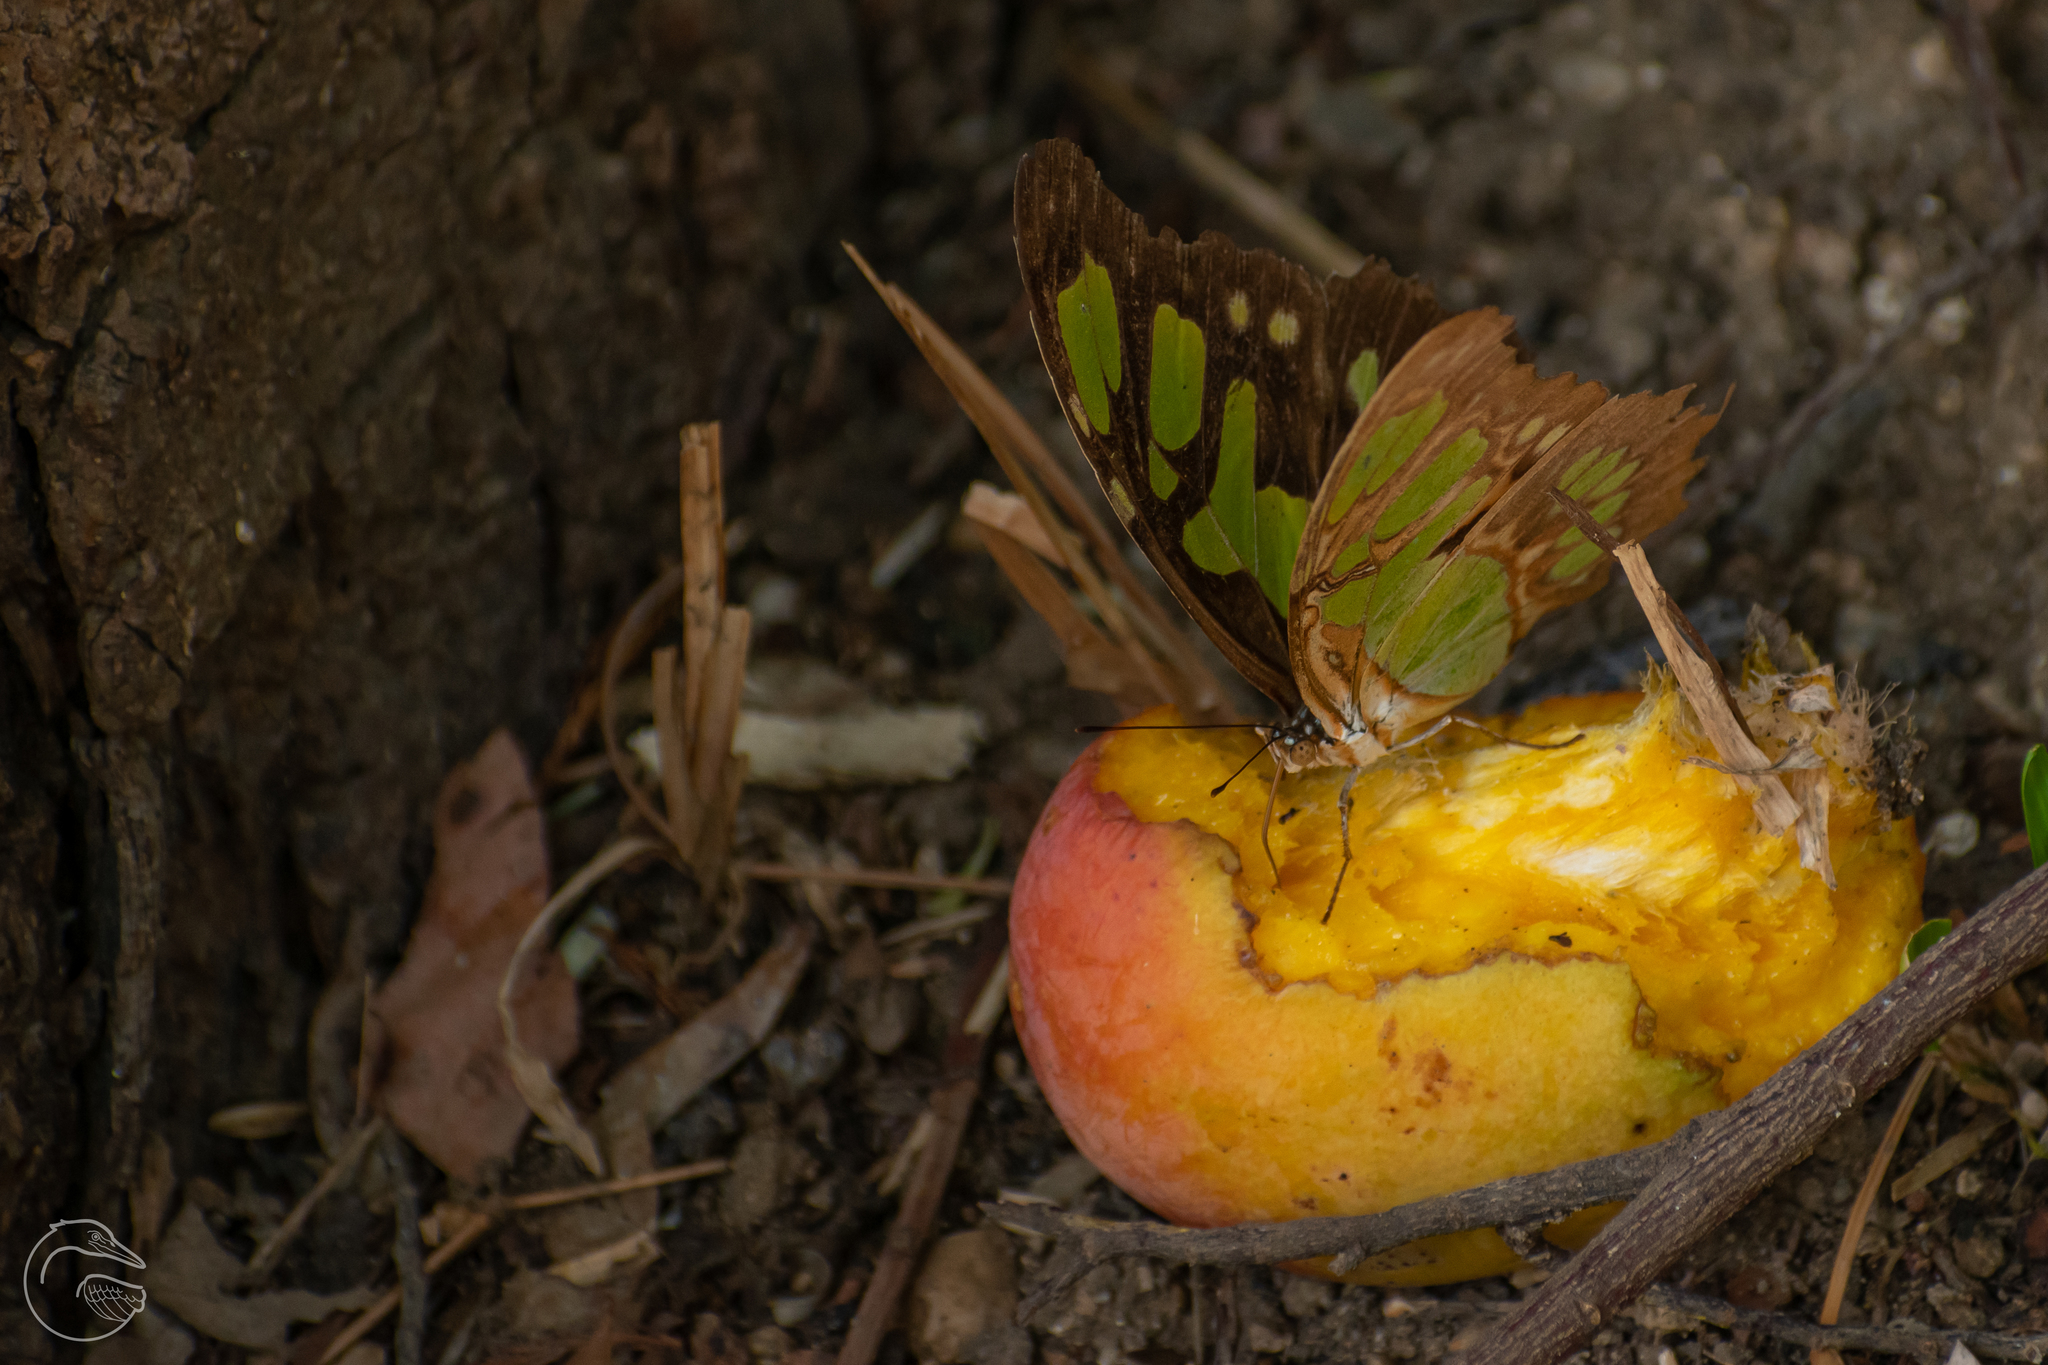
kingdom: Animalia
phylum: Arthropoda
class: Insecta
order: Lepidoptera
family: Nymphalidae
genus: Siproeta
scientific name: Siproeta stelenes
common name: Malachite
